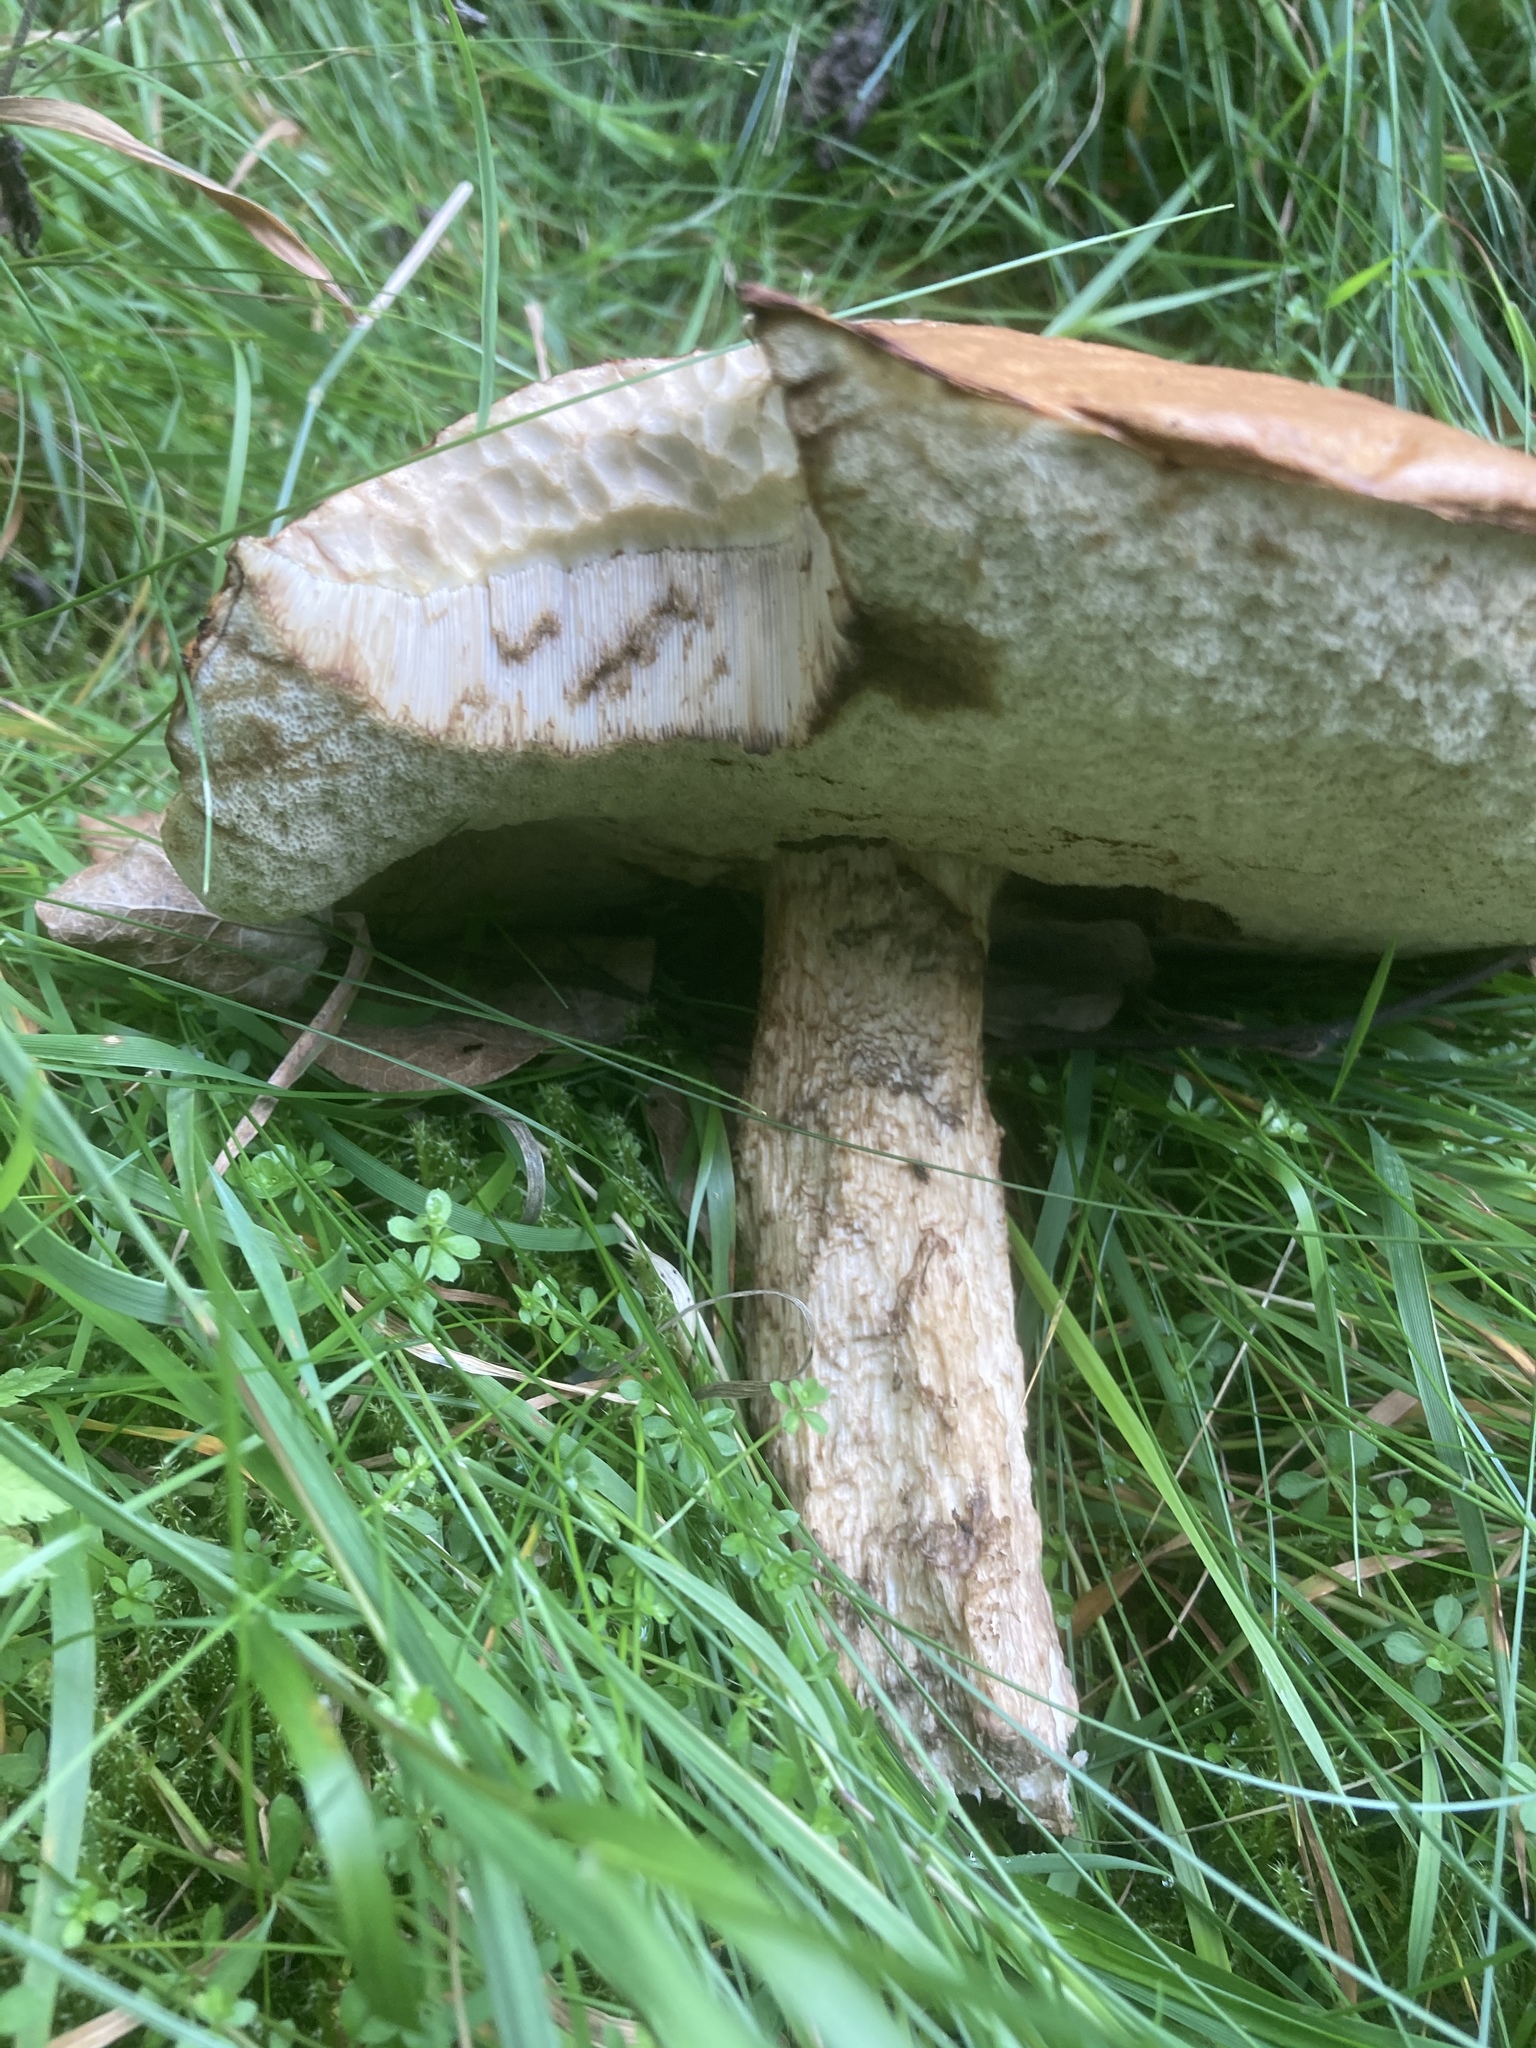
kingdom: Fungi
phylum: Basidiomycota
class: Agaricomycetes
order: Boletales
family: Boletaceae
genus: Leccinum
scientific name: Leccinum aurantiacum
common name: Orange bolete
